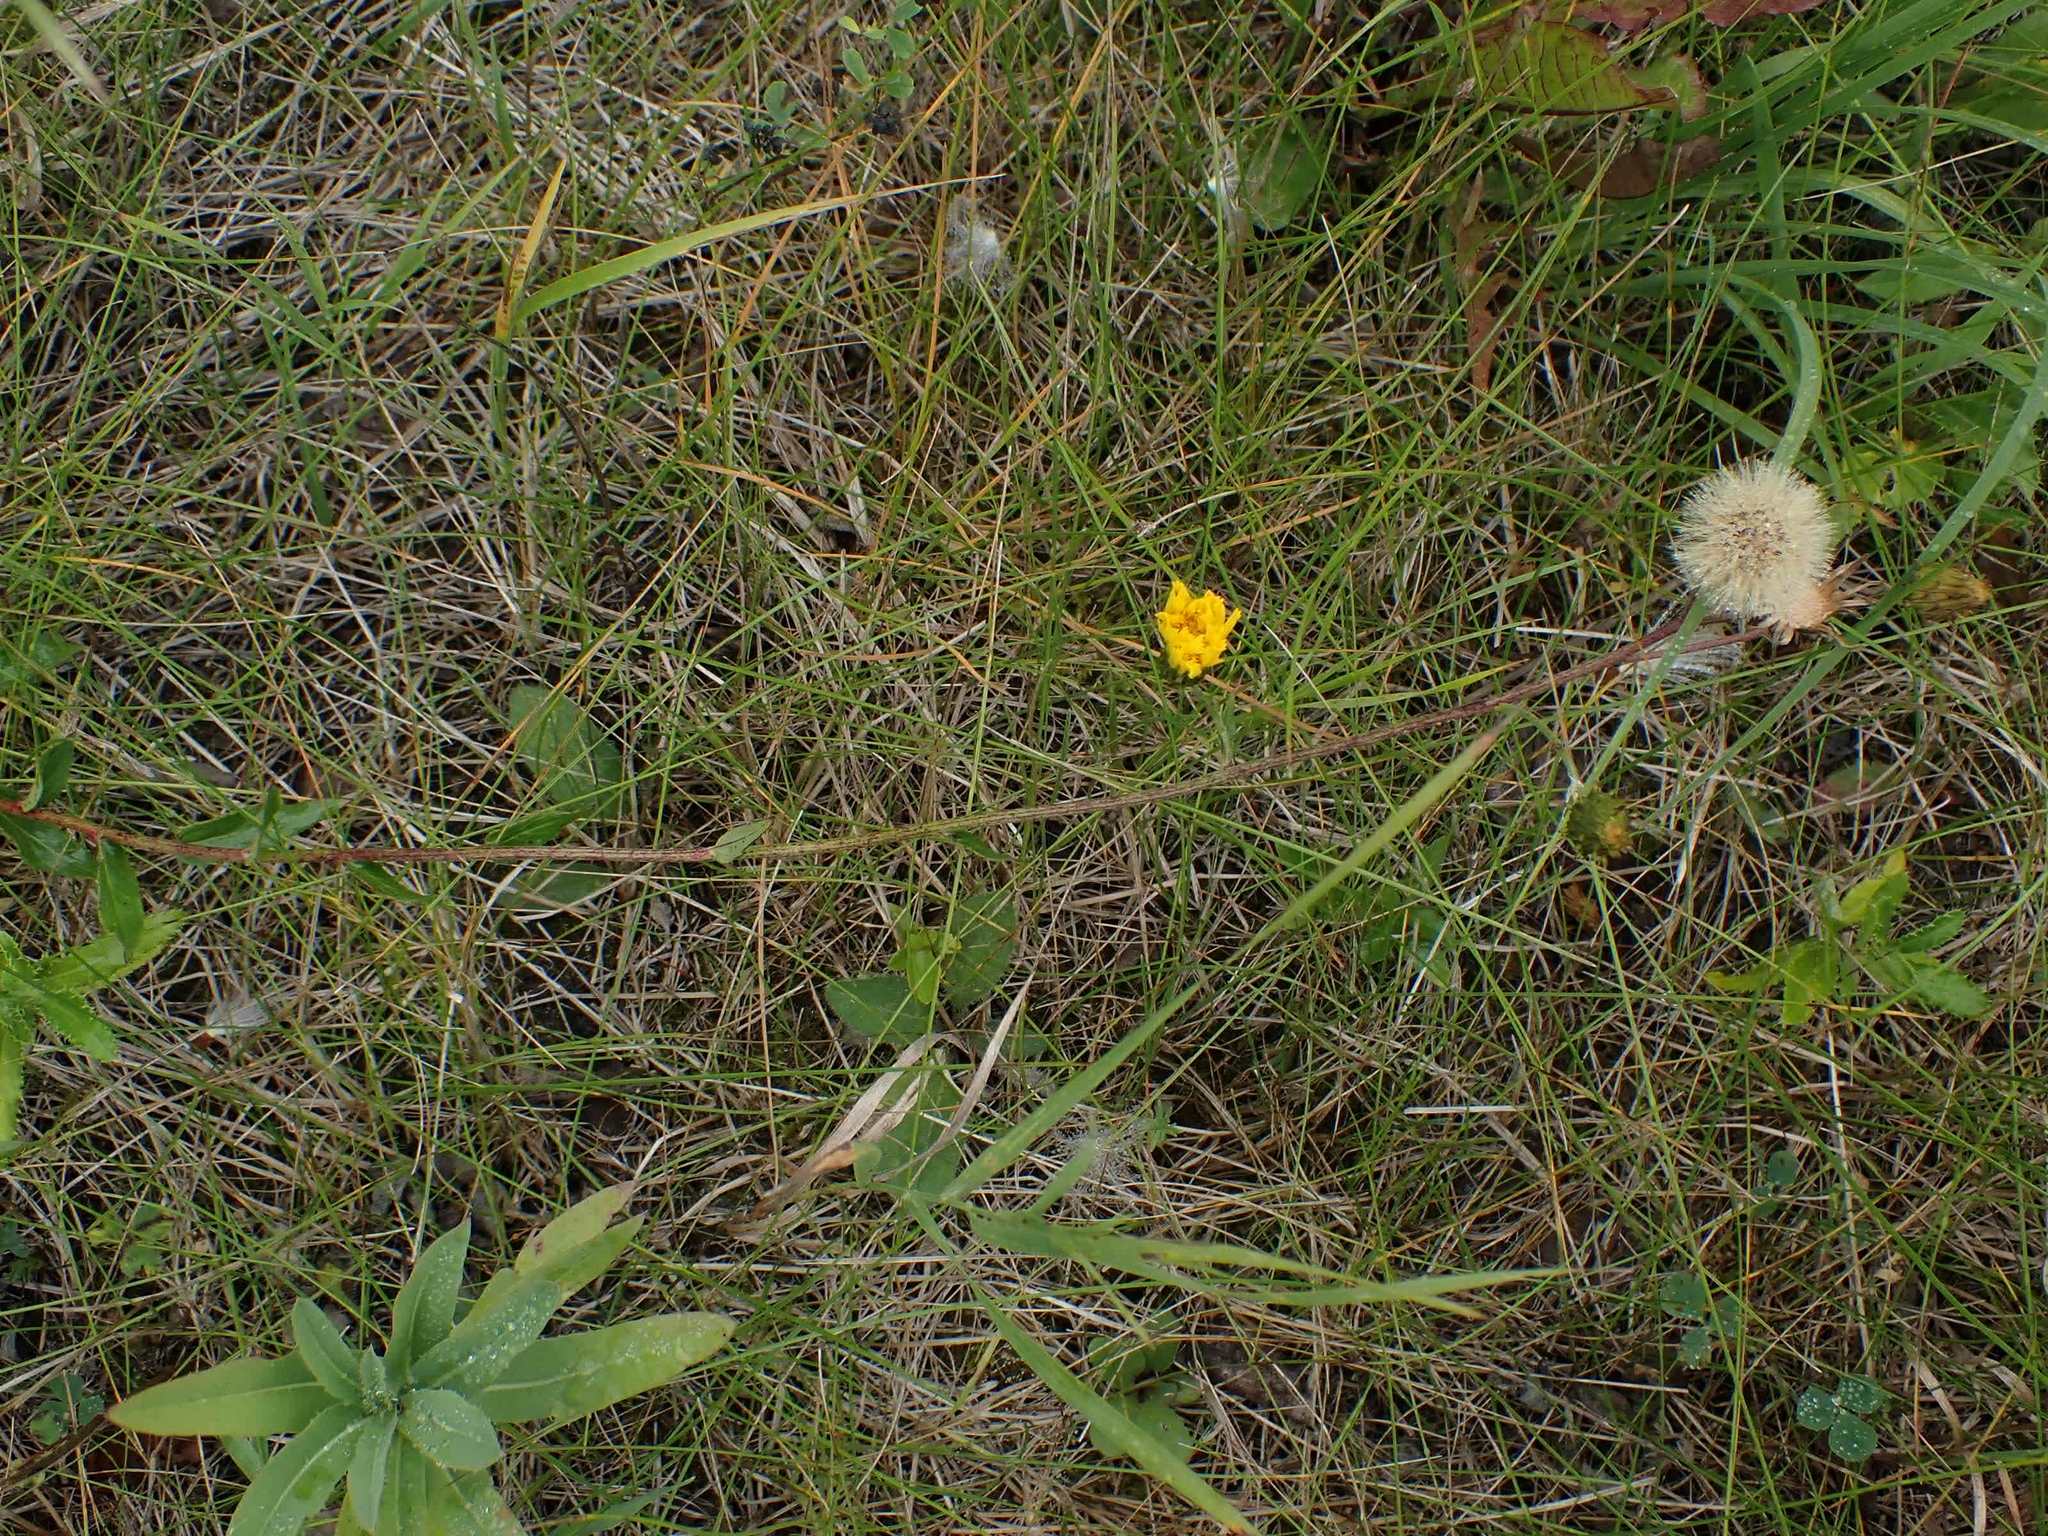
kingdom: Plantae
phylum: Tracheophyta
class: Magnoliopsida
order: Asterales
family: Asteraceae
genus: Hieracium
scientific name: Hieracium umbellatum
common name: Northern hawkweed
